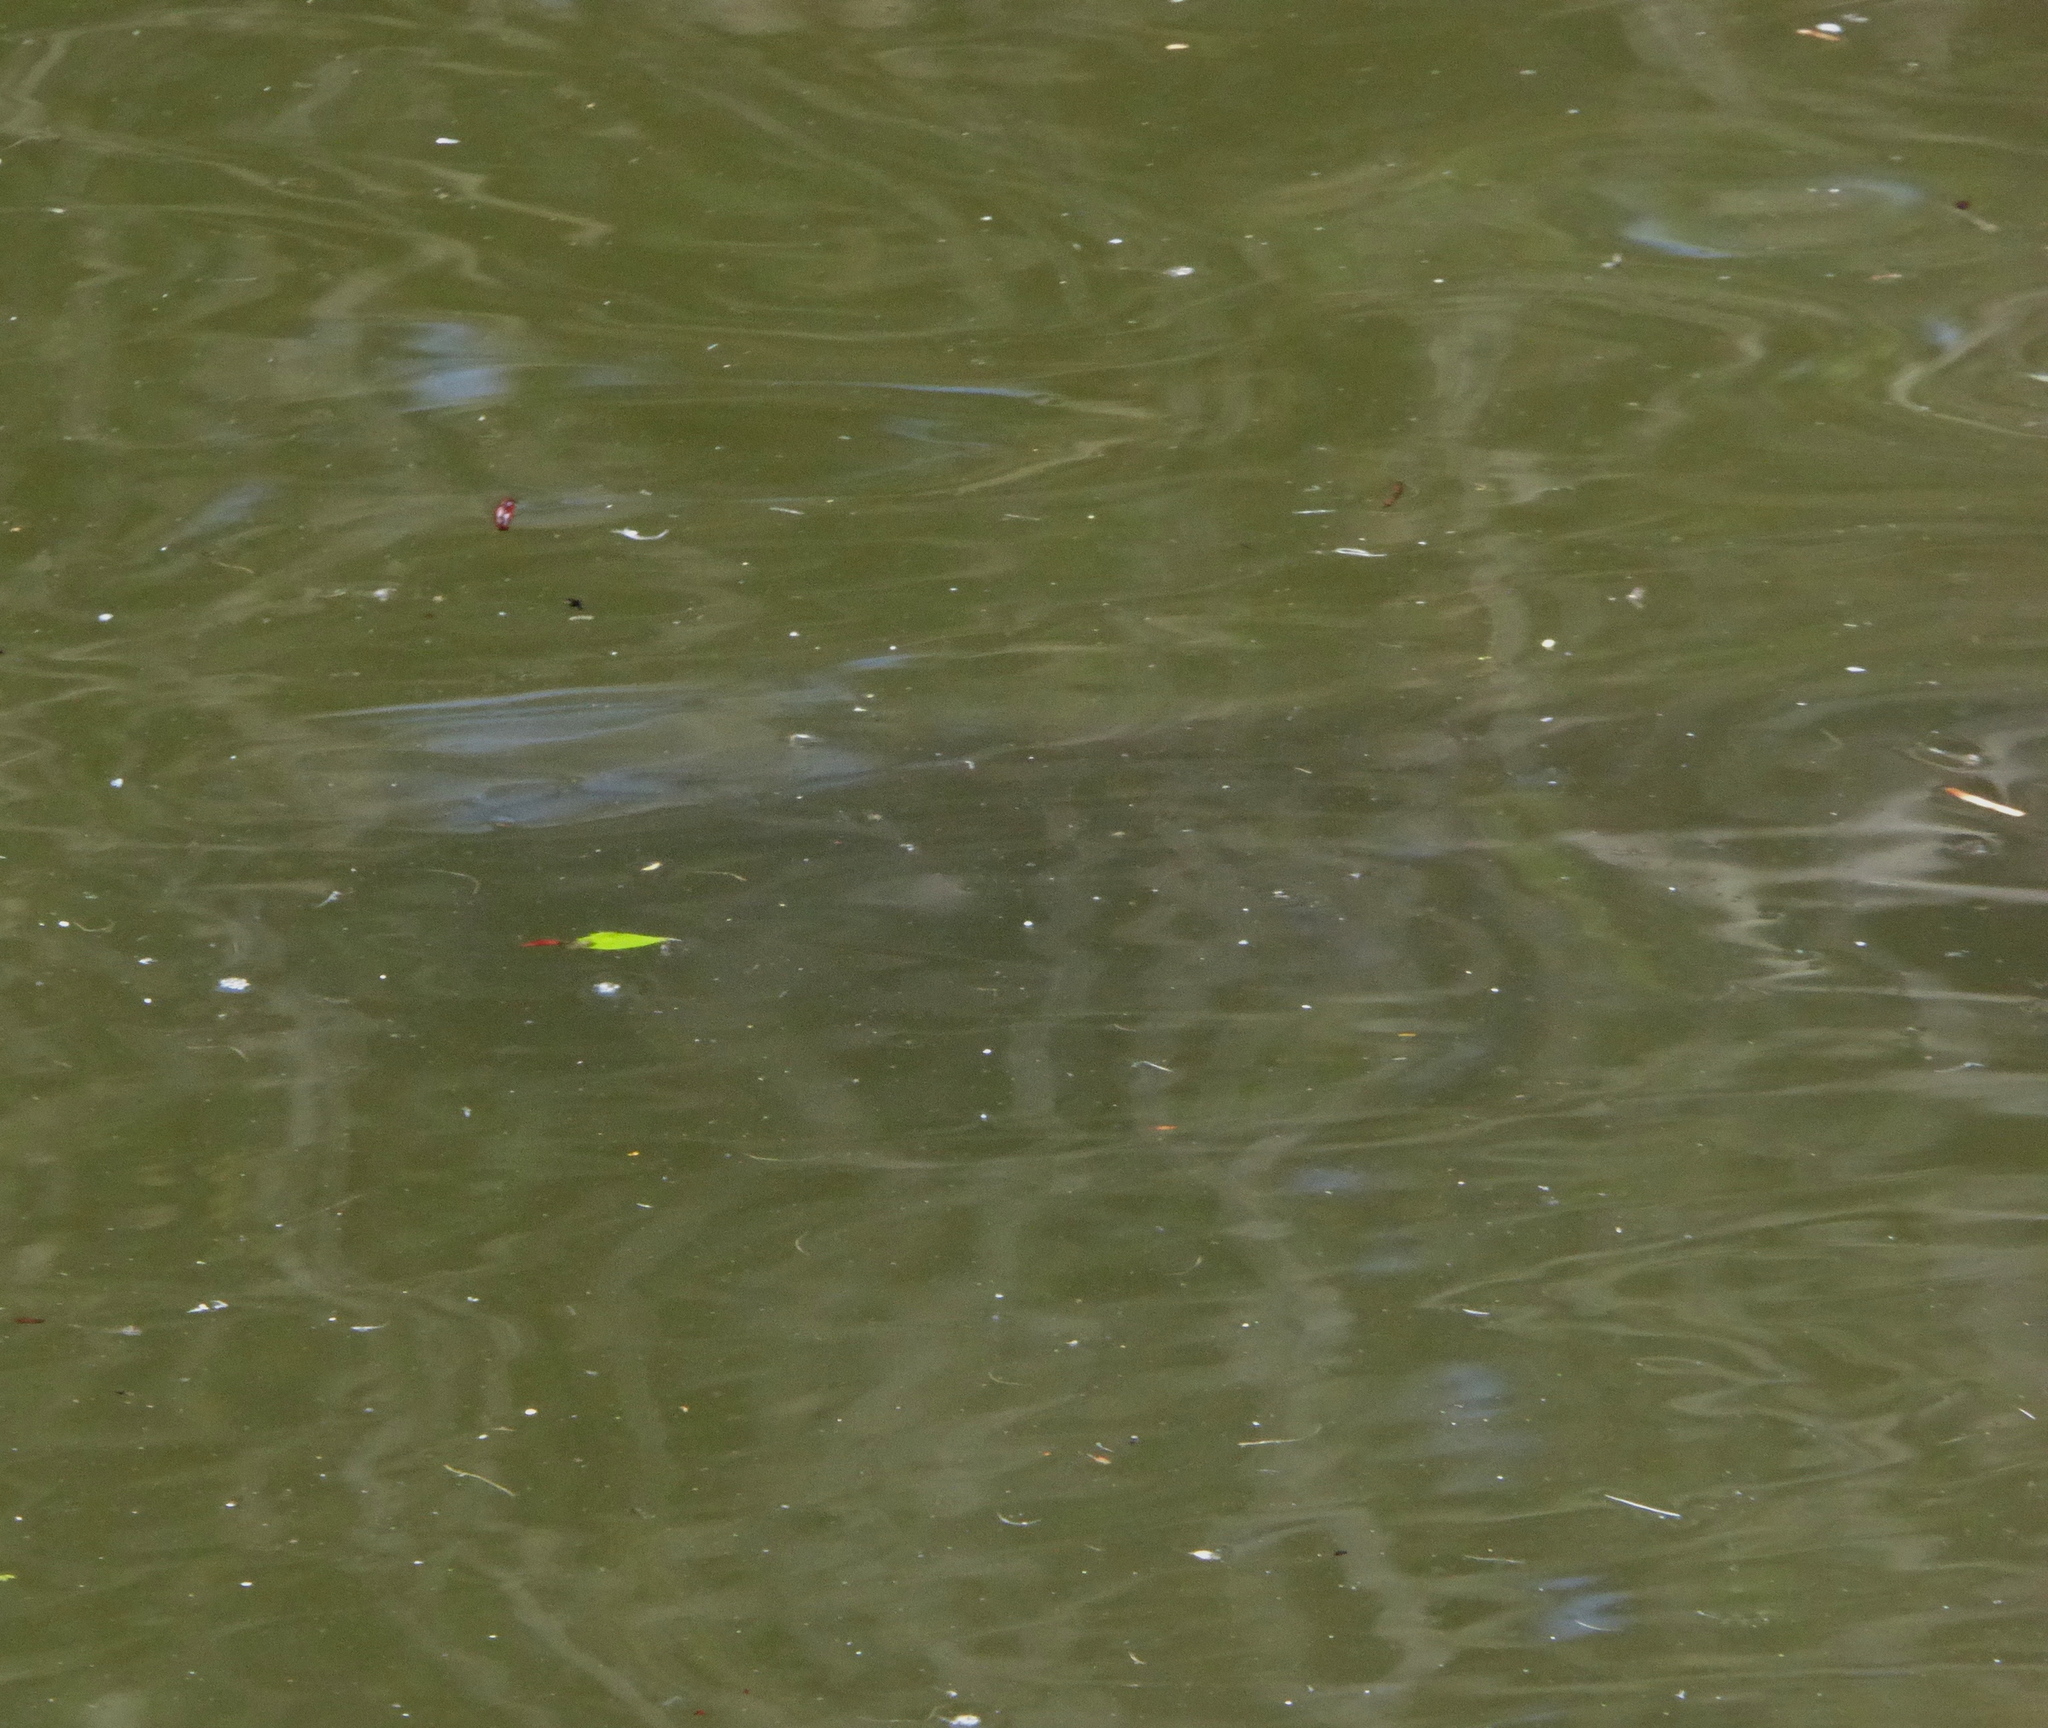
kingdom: Animalia
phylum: Chordata
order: Cypriniformes
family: Cyprinidae
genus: Cyprinus
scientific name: Cyprinus carpio
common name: Common carp
